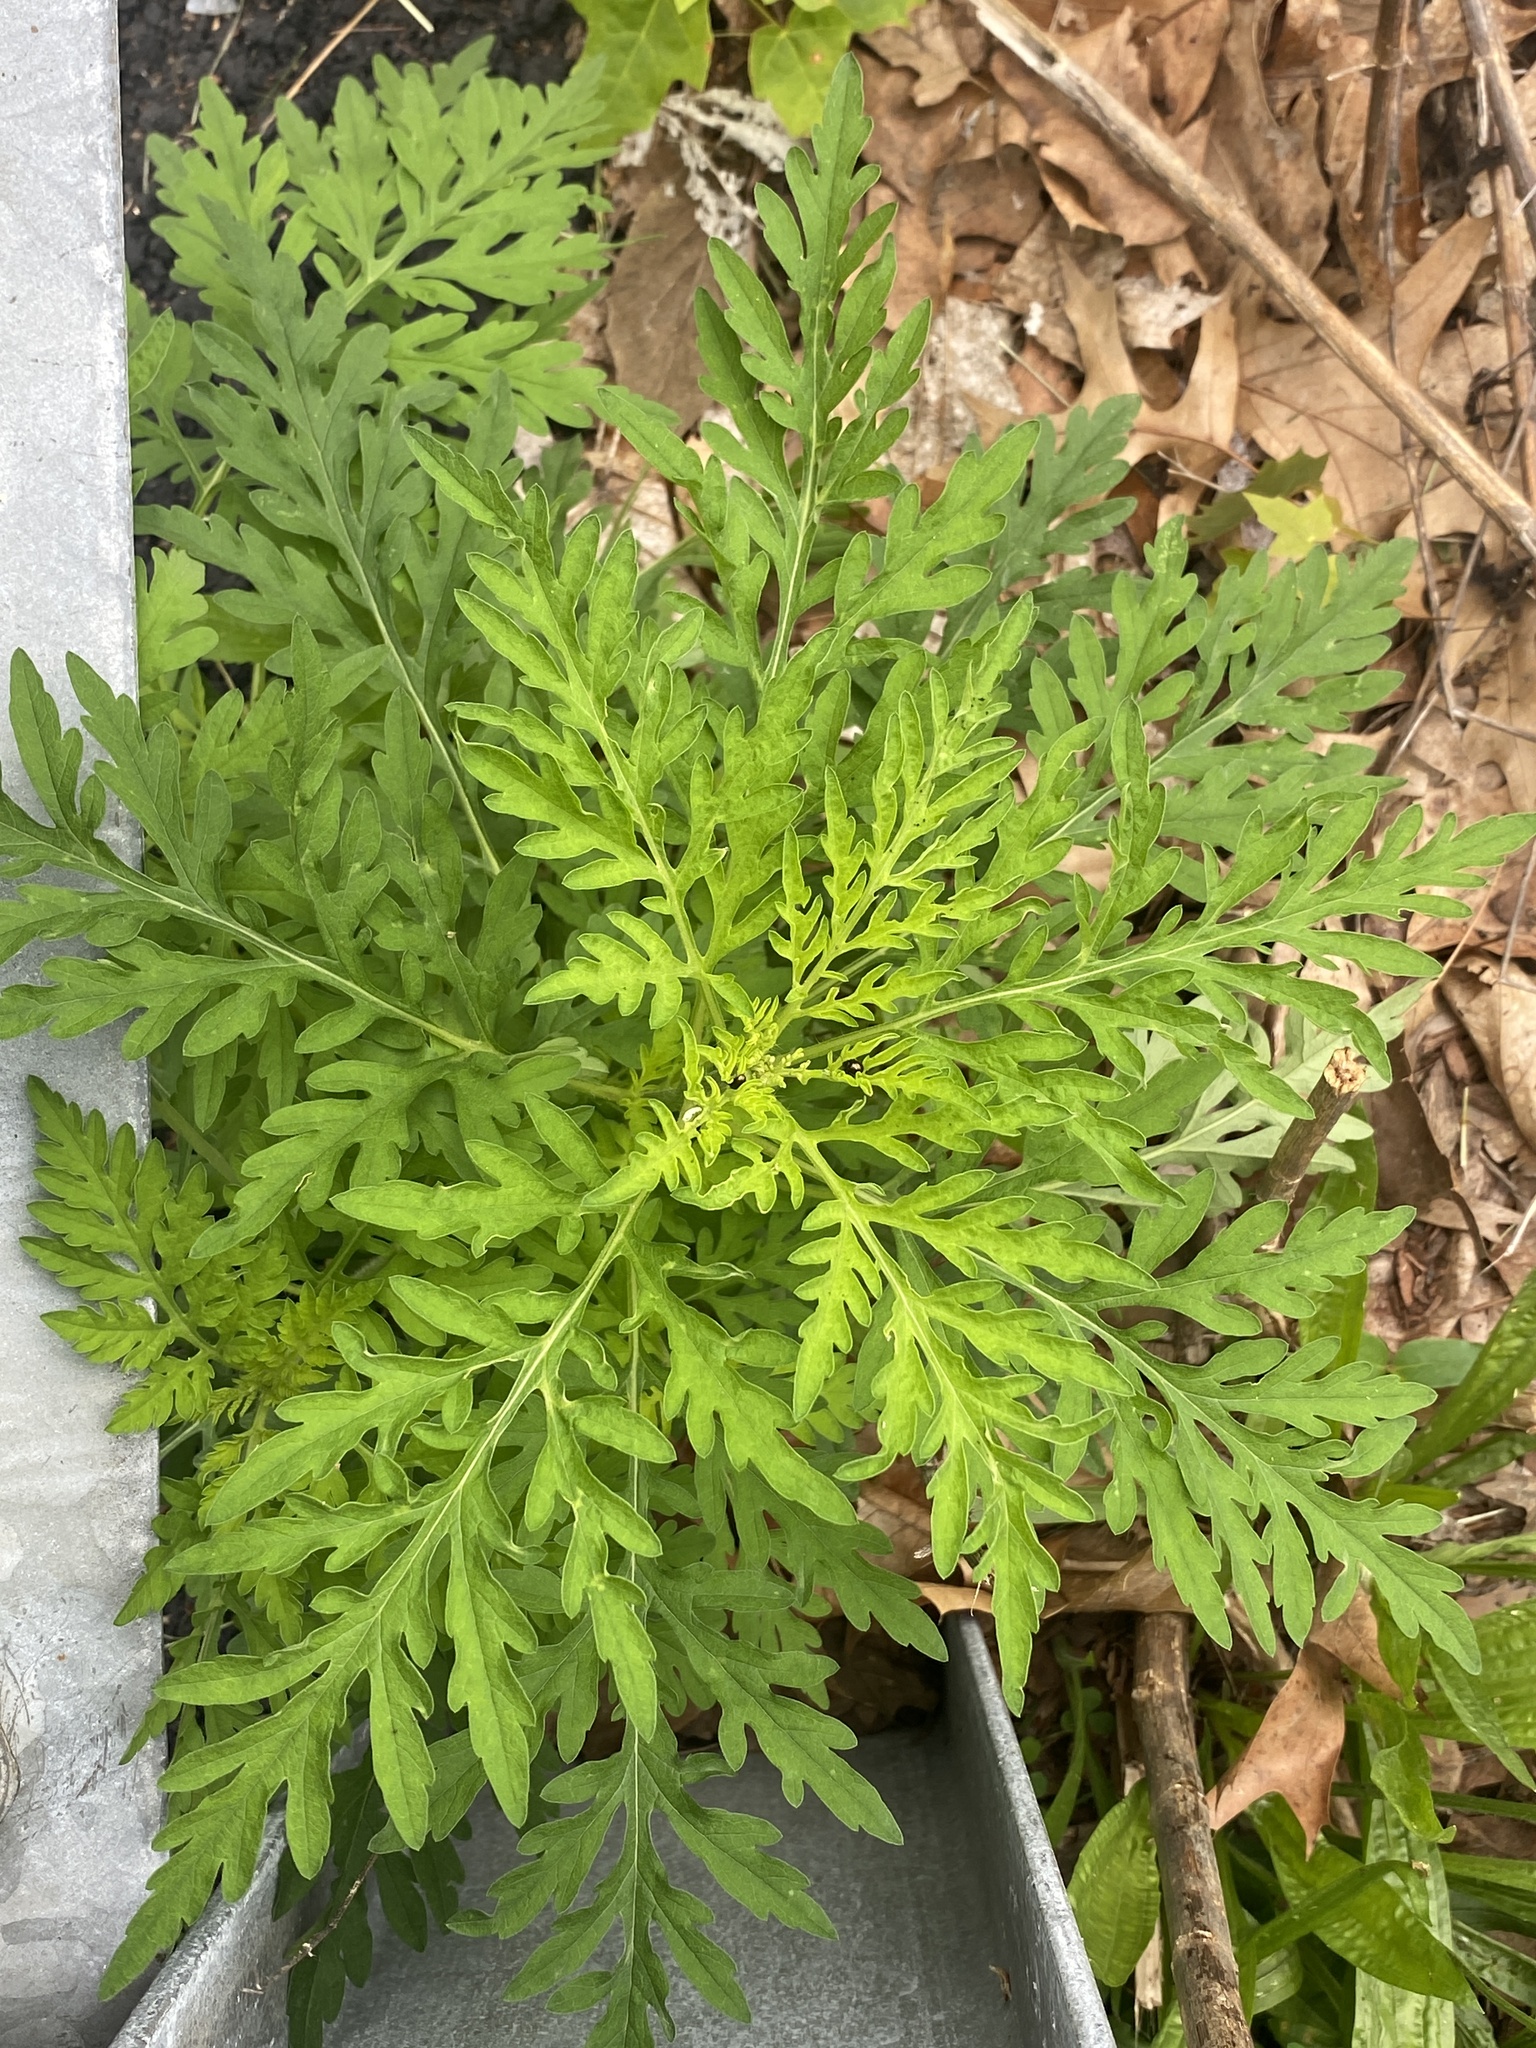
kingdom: Plantae
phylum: Tracheophyta
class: Magnoliopsida
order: Asterales
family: Asteraceae
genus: Ambrosia
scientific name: Ambrosia artemisiifolia
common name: Annual ragweed
